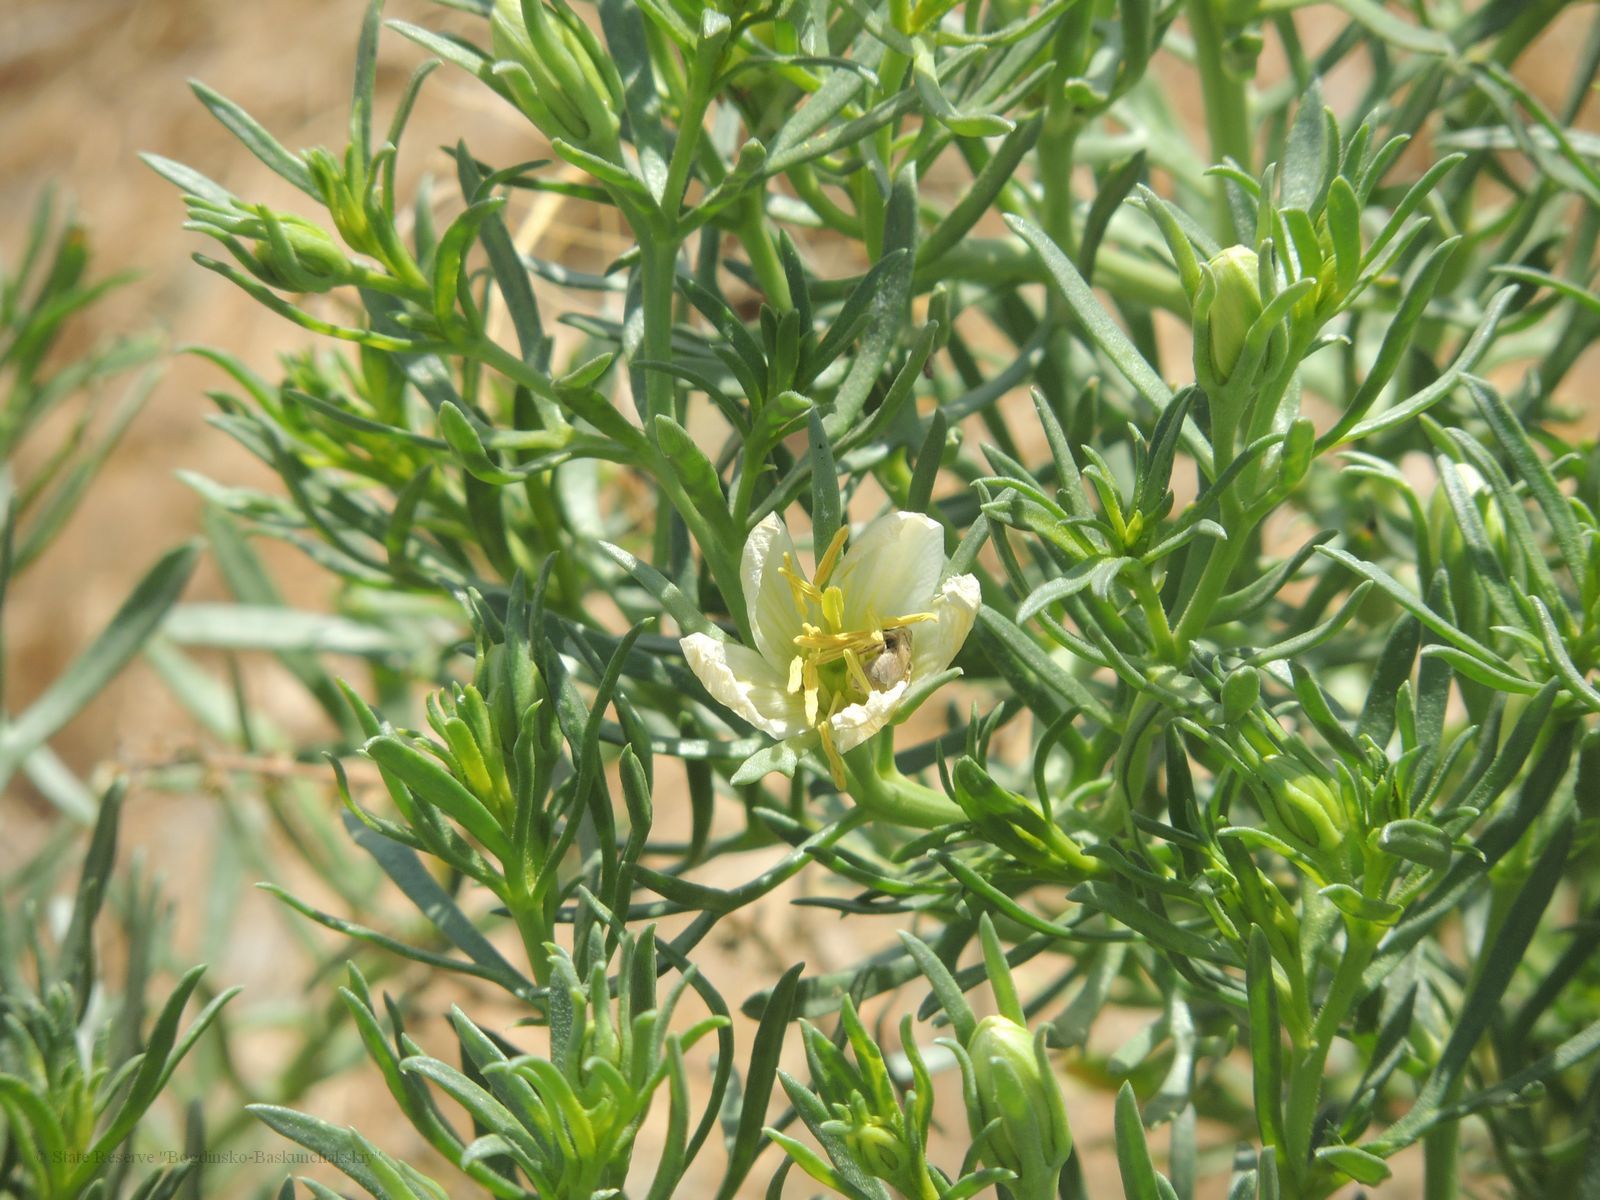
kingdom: Plantae
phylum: Tracheophyta
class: Magnoliopsida
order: Sapindales
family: Tetradiclidaceae
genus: Peganum
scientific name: Peganum harmala
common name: Harmal peganum
